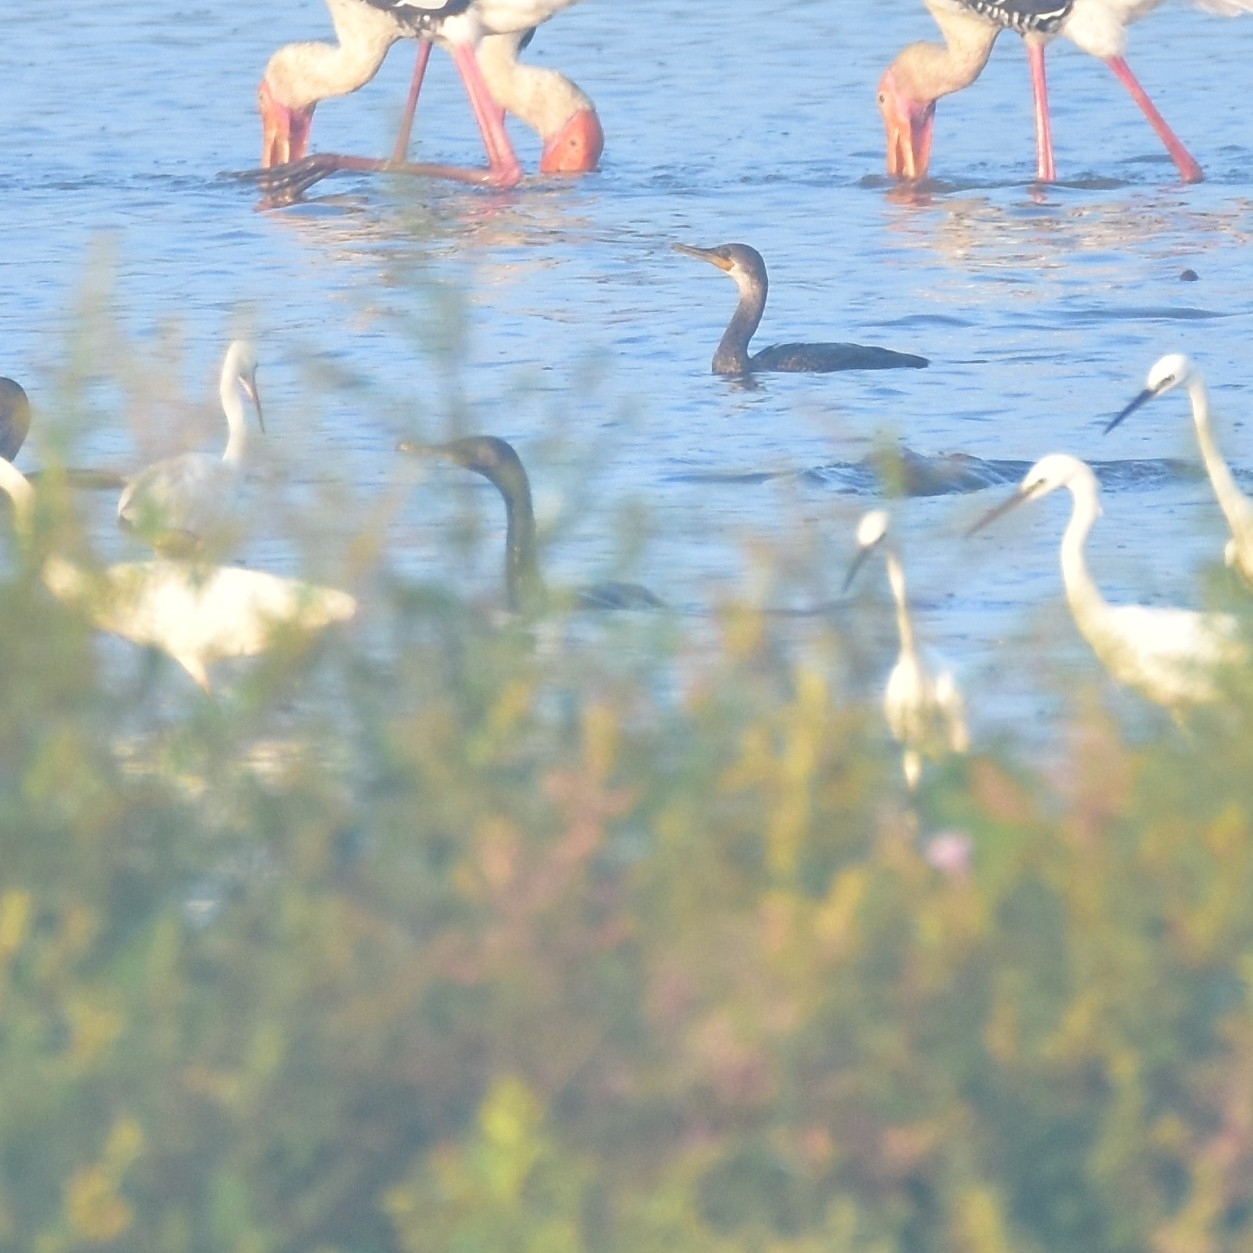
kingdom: Animalia
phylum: Chordata
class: Aves
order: Suliformes
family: Phalacrocoracidae
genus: Phalacrocorax
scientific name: Phalacrocorax fuscicollis
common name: Indian cormorant
